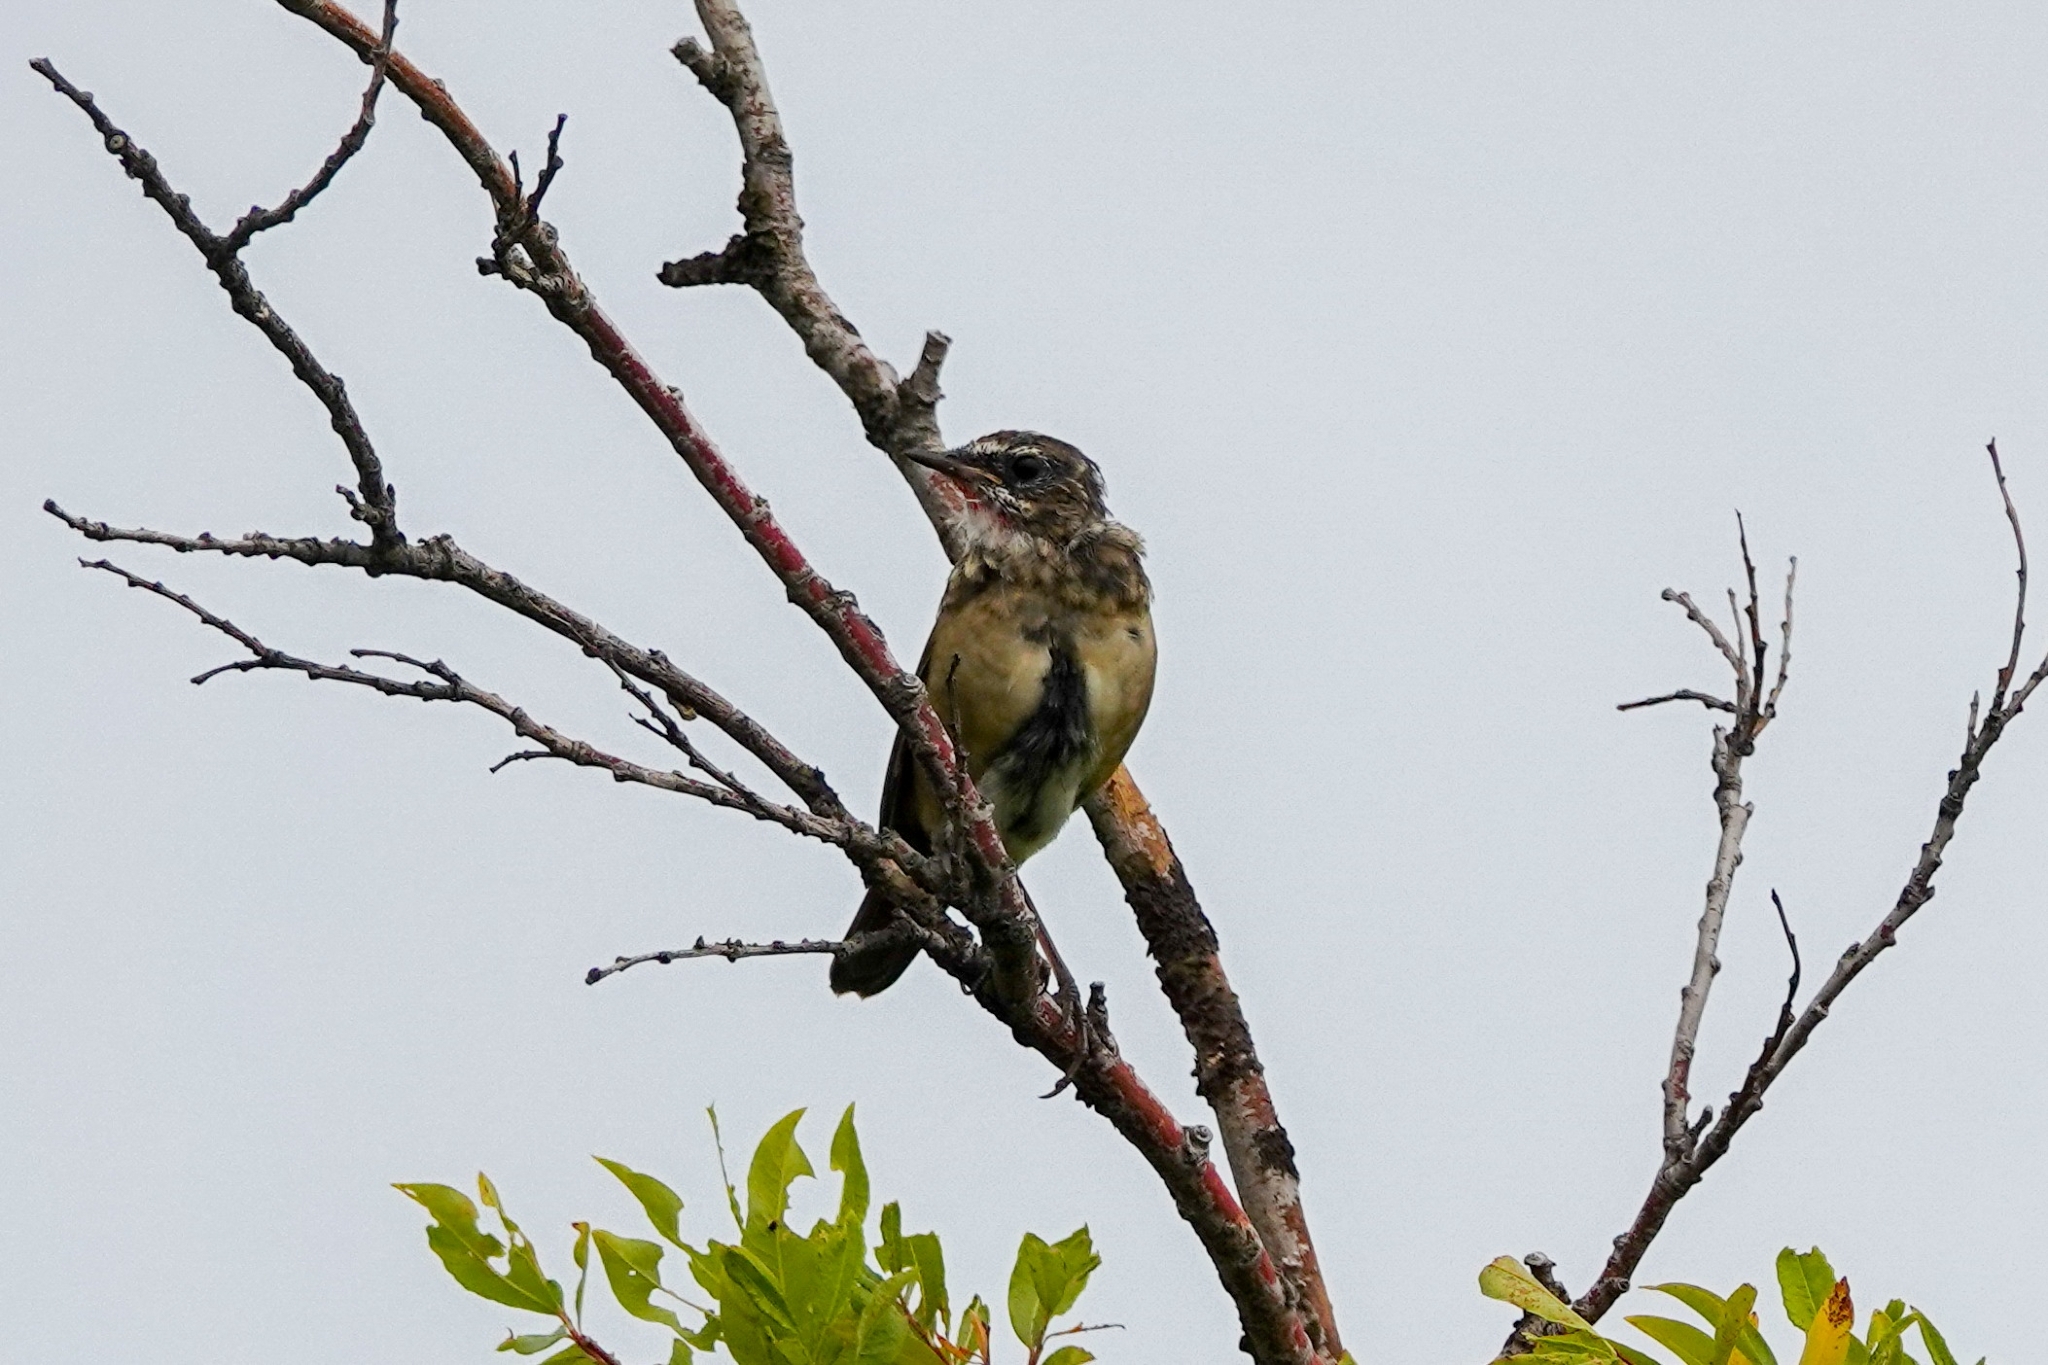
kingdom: Animalia
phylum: Chordata
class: Aves
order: Passeriformes
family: Muscicapidae
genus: Luscinia
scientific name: Luscinia calliope
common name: Siberian rubythroat
